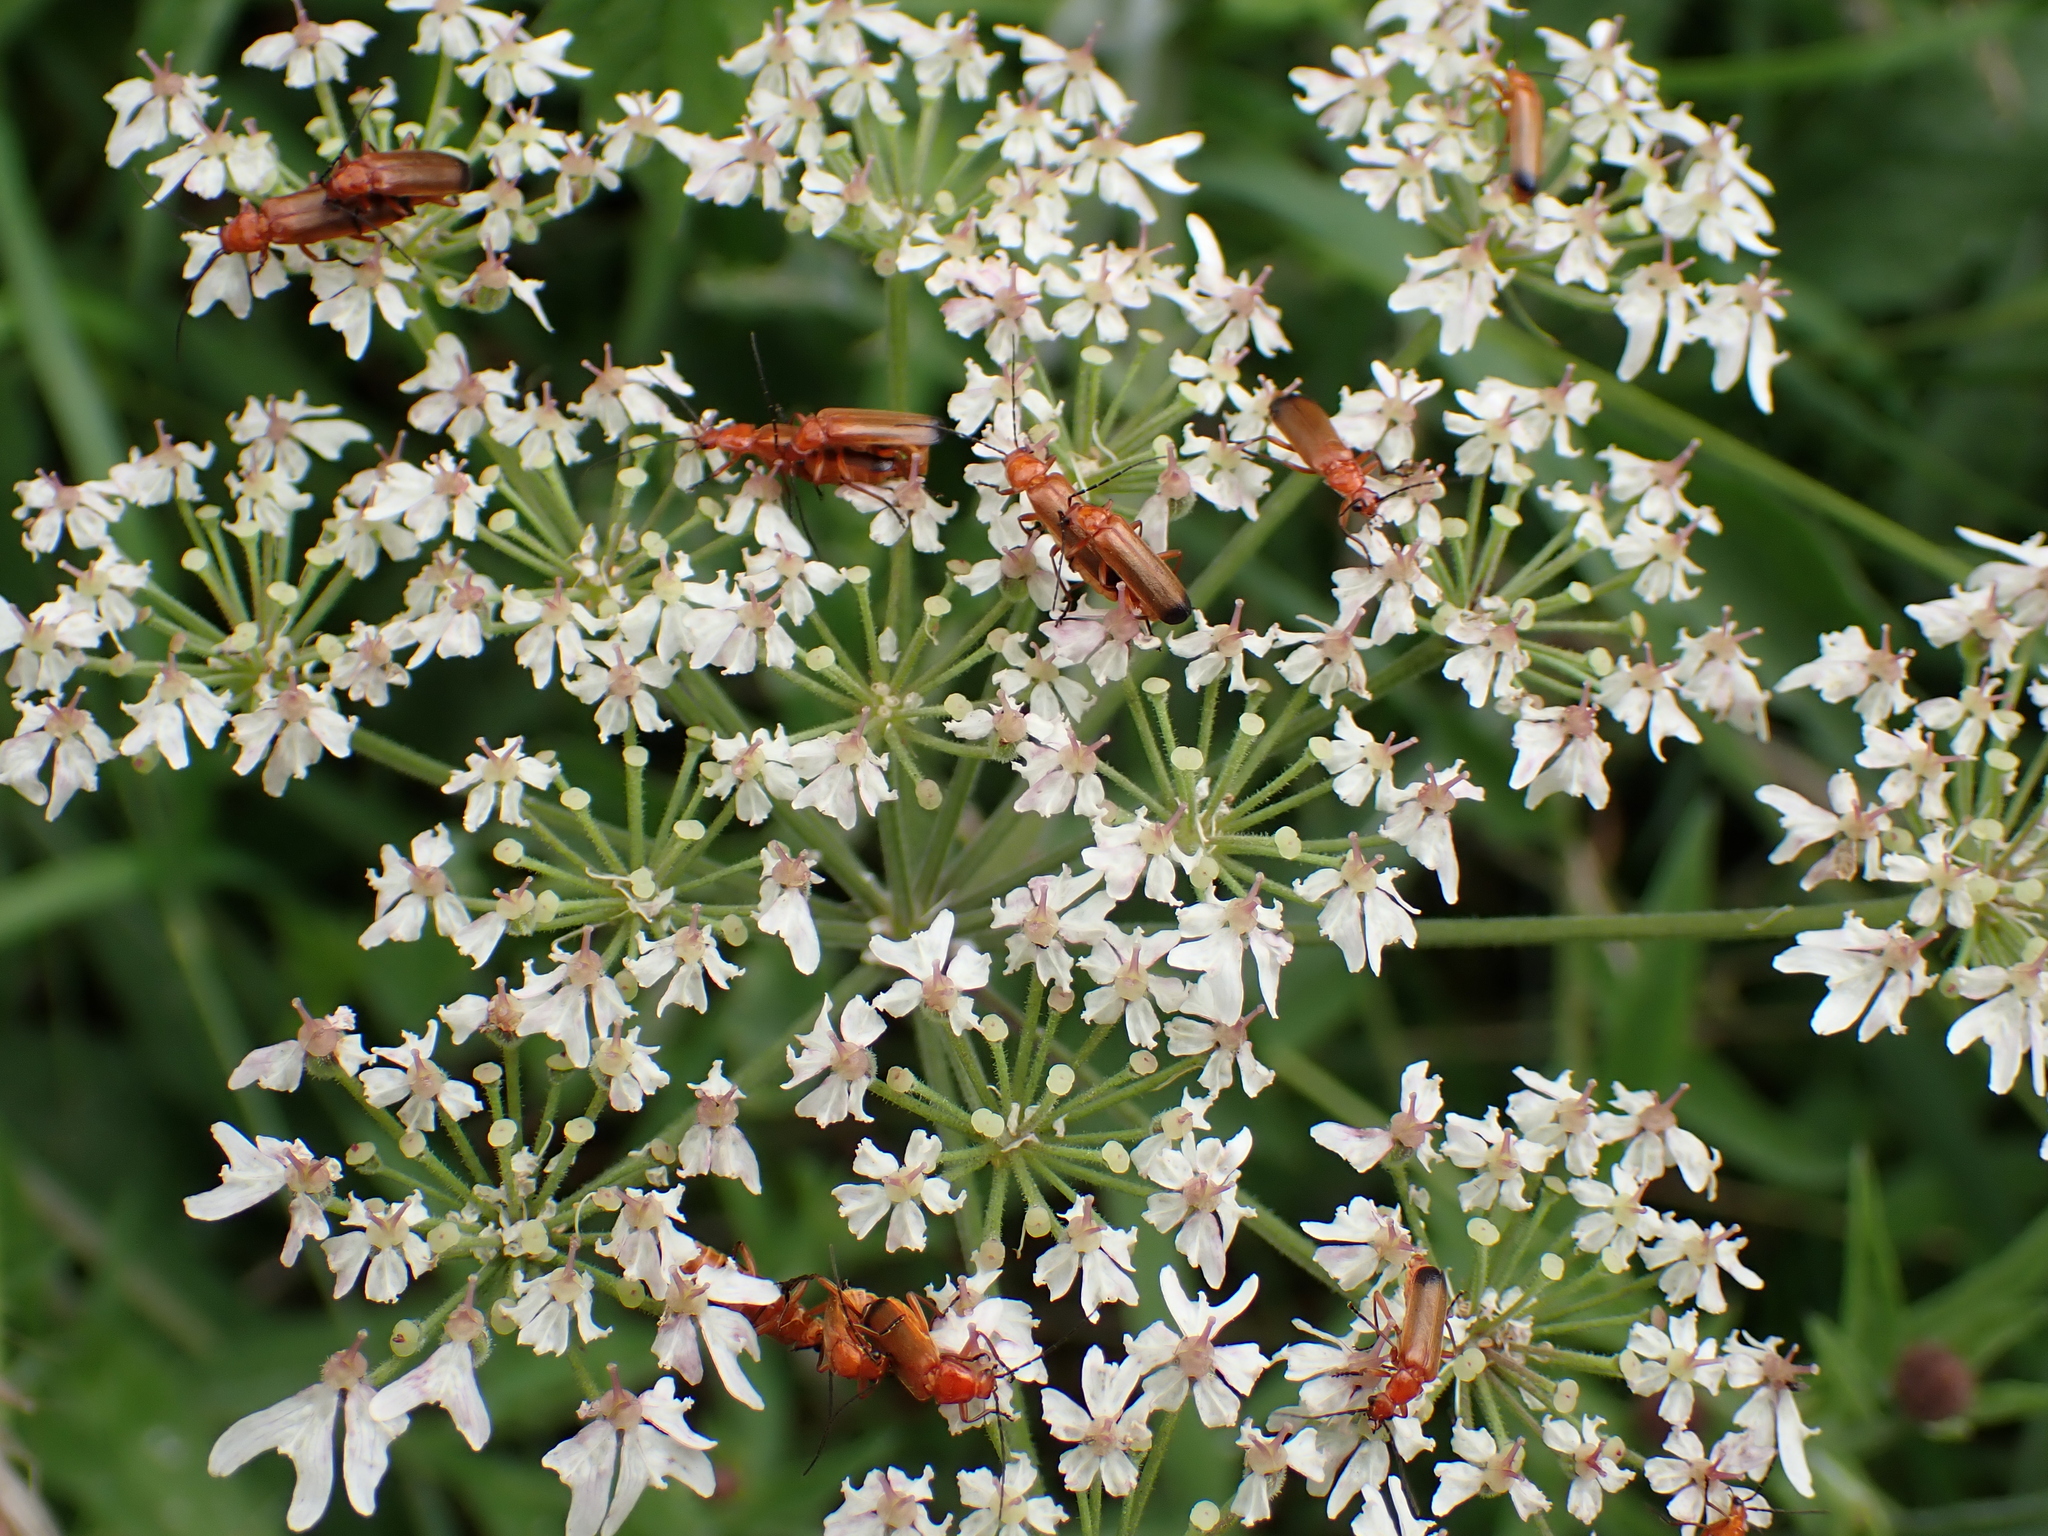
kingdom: Animalia
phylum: Arthropoda
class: Insecta
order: Coleoptera
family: Cantharidae
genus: Rhagonycha
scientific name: Rhagonycha fulva
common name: Common red soldier beetle
